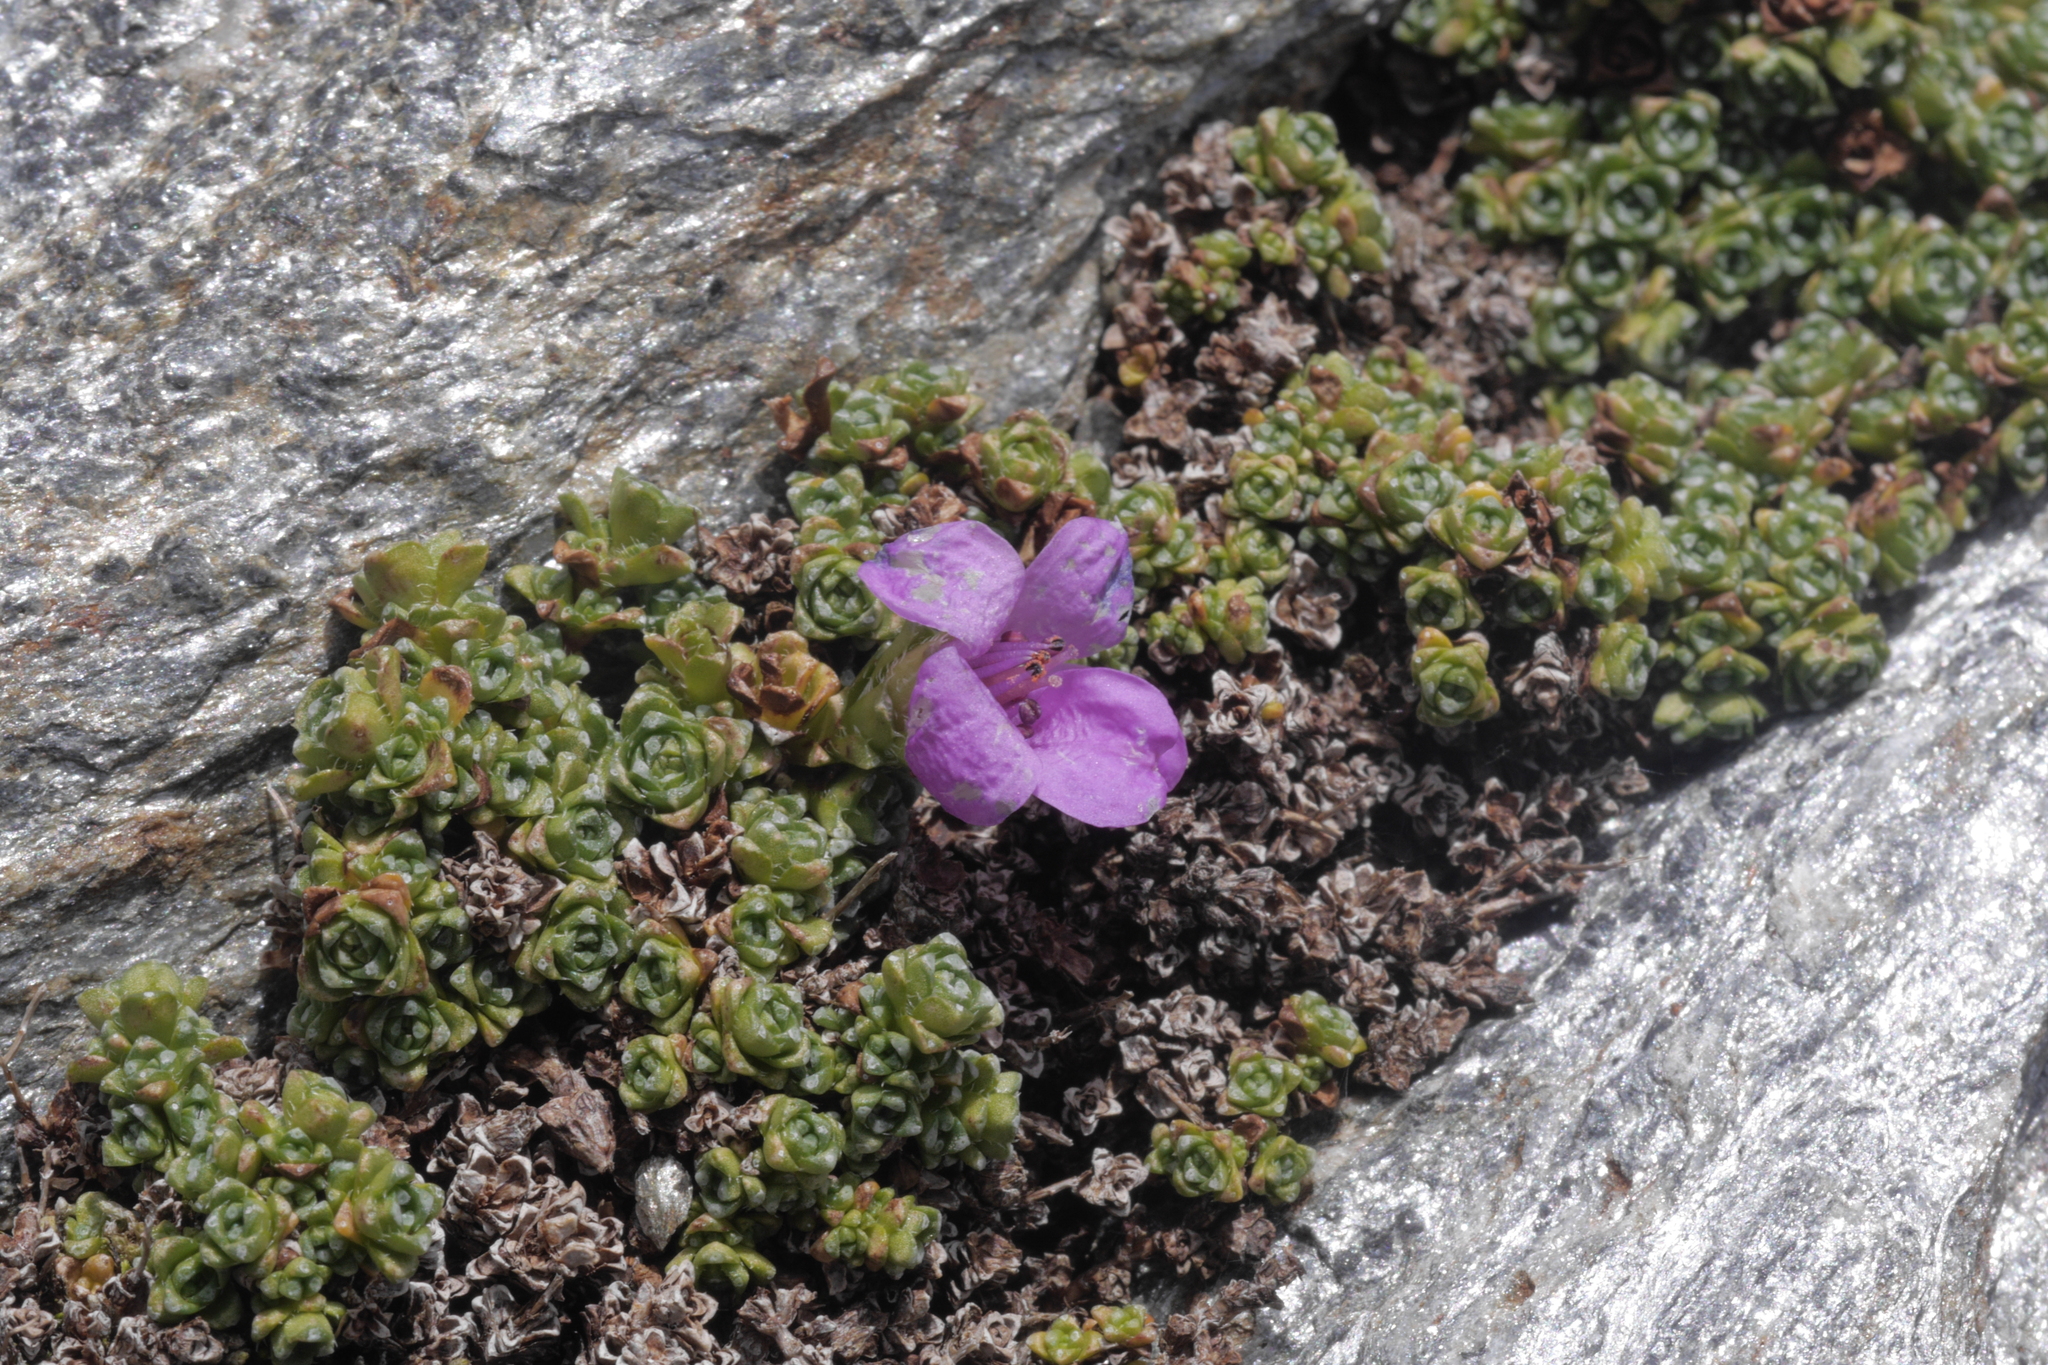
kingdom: Plantae
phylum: Tracheophyta
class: Magnoliopsida
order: Saxifragales
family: Saxifragaceae
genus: Saxifraga
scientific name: Saxifraga oppositifolia
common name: Purple saxifrage
